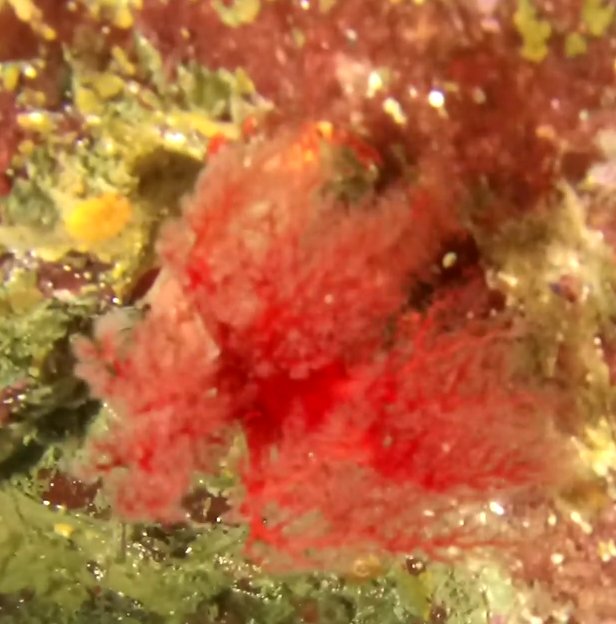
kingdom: Animalia
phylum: Echinodermata
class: Holothuroidea
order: Dendrochirotida
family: Psolidae
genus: Psolus
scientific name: Psolus chitonoides
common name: Creeping pedal sea cucumber
